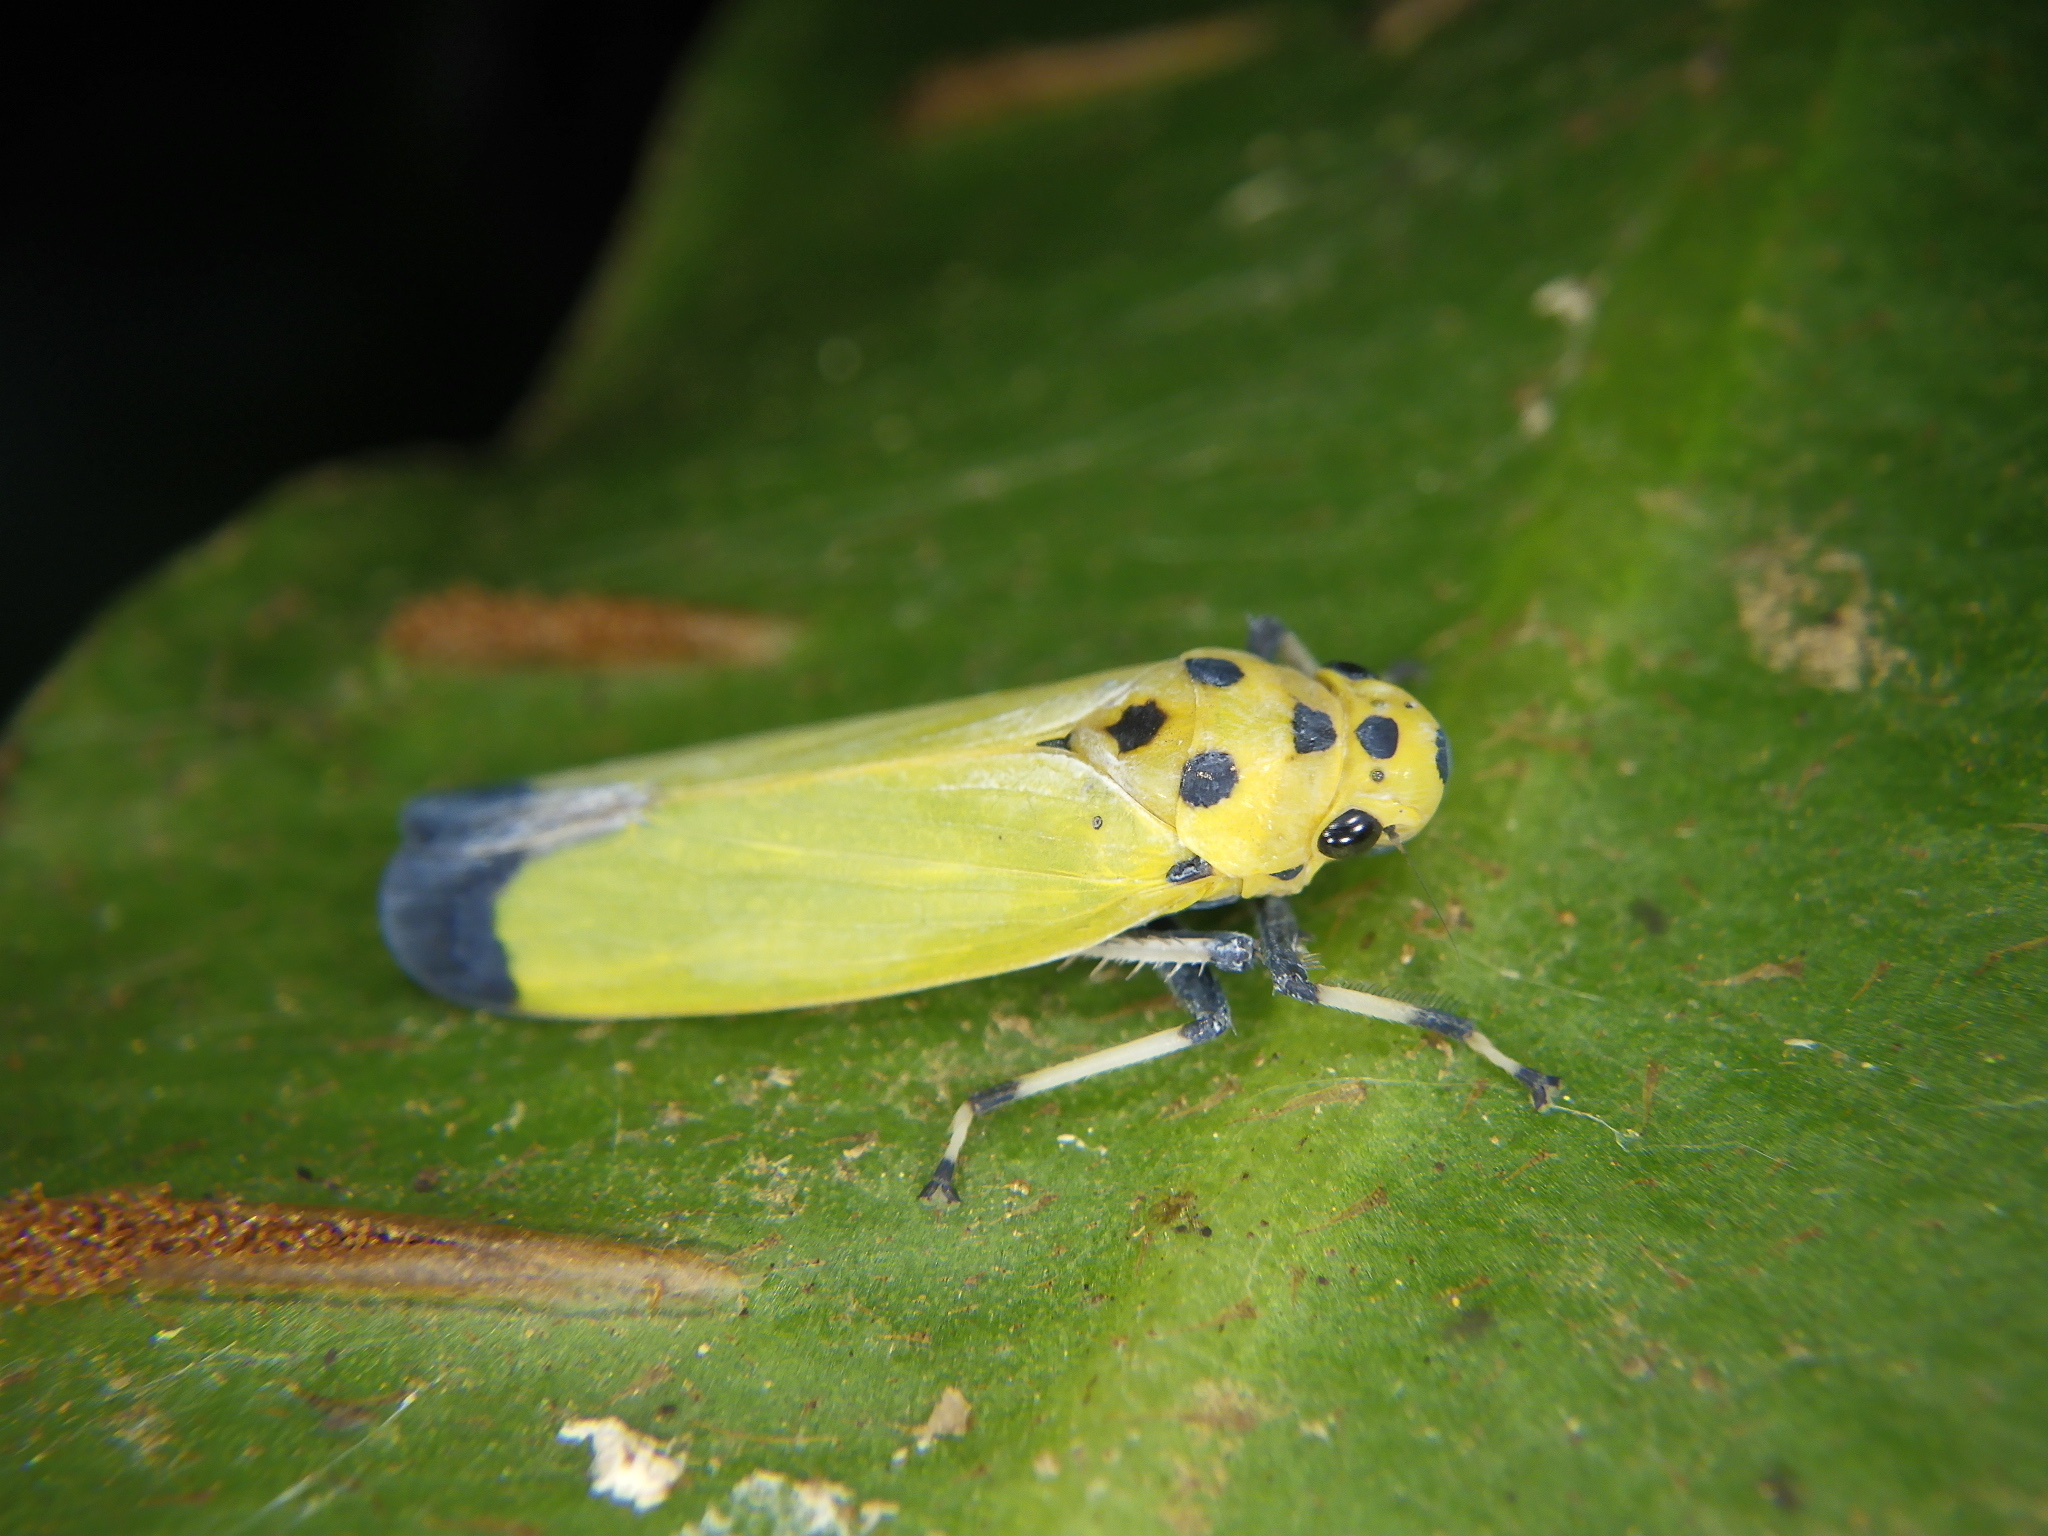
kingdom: Animalia
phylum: Arthropoda
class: Insecta
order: Hemiptera
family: Cicadellidae
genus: Bothrogonia
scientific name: Bothrogonia ferruginea
